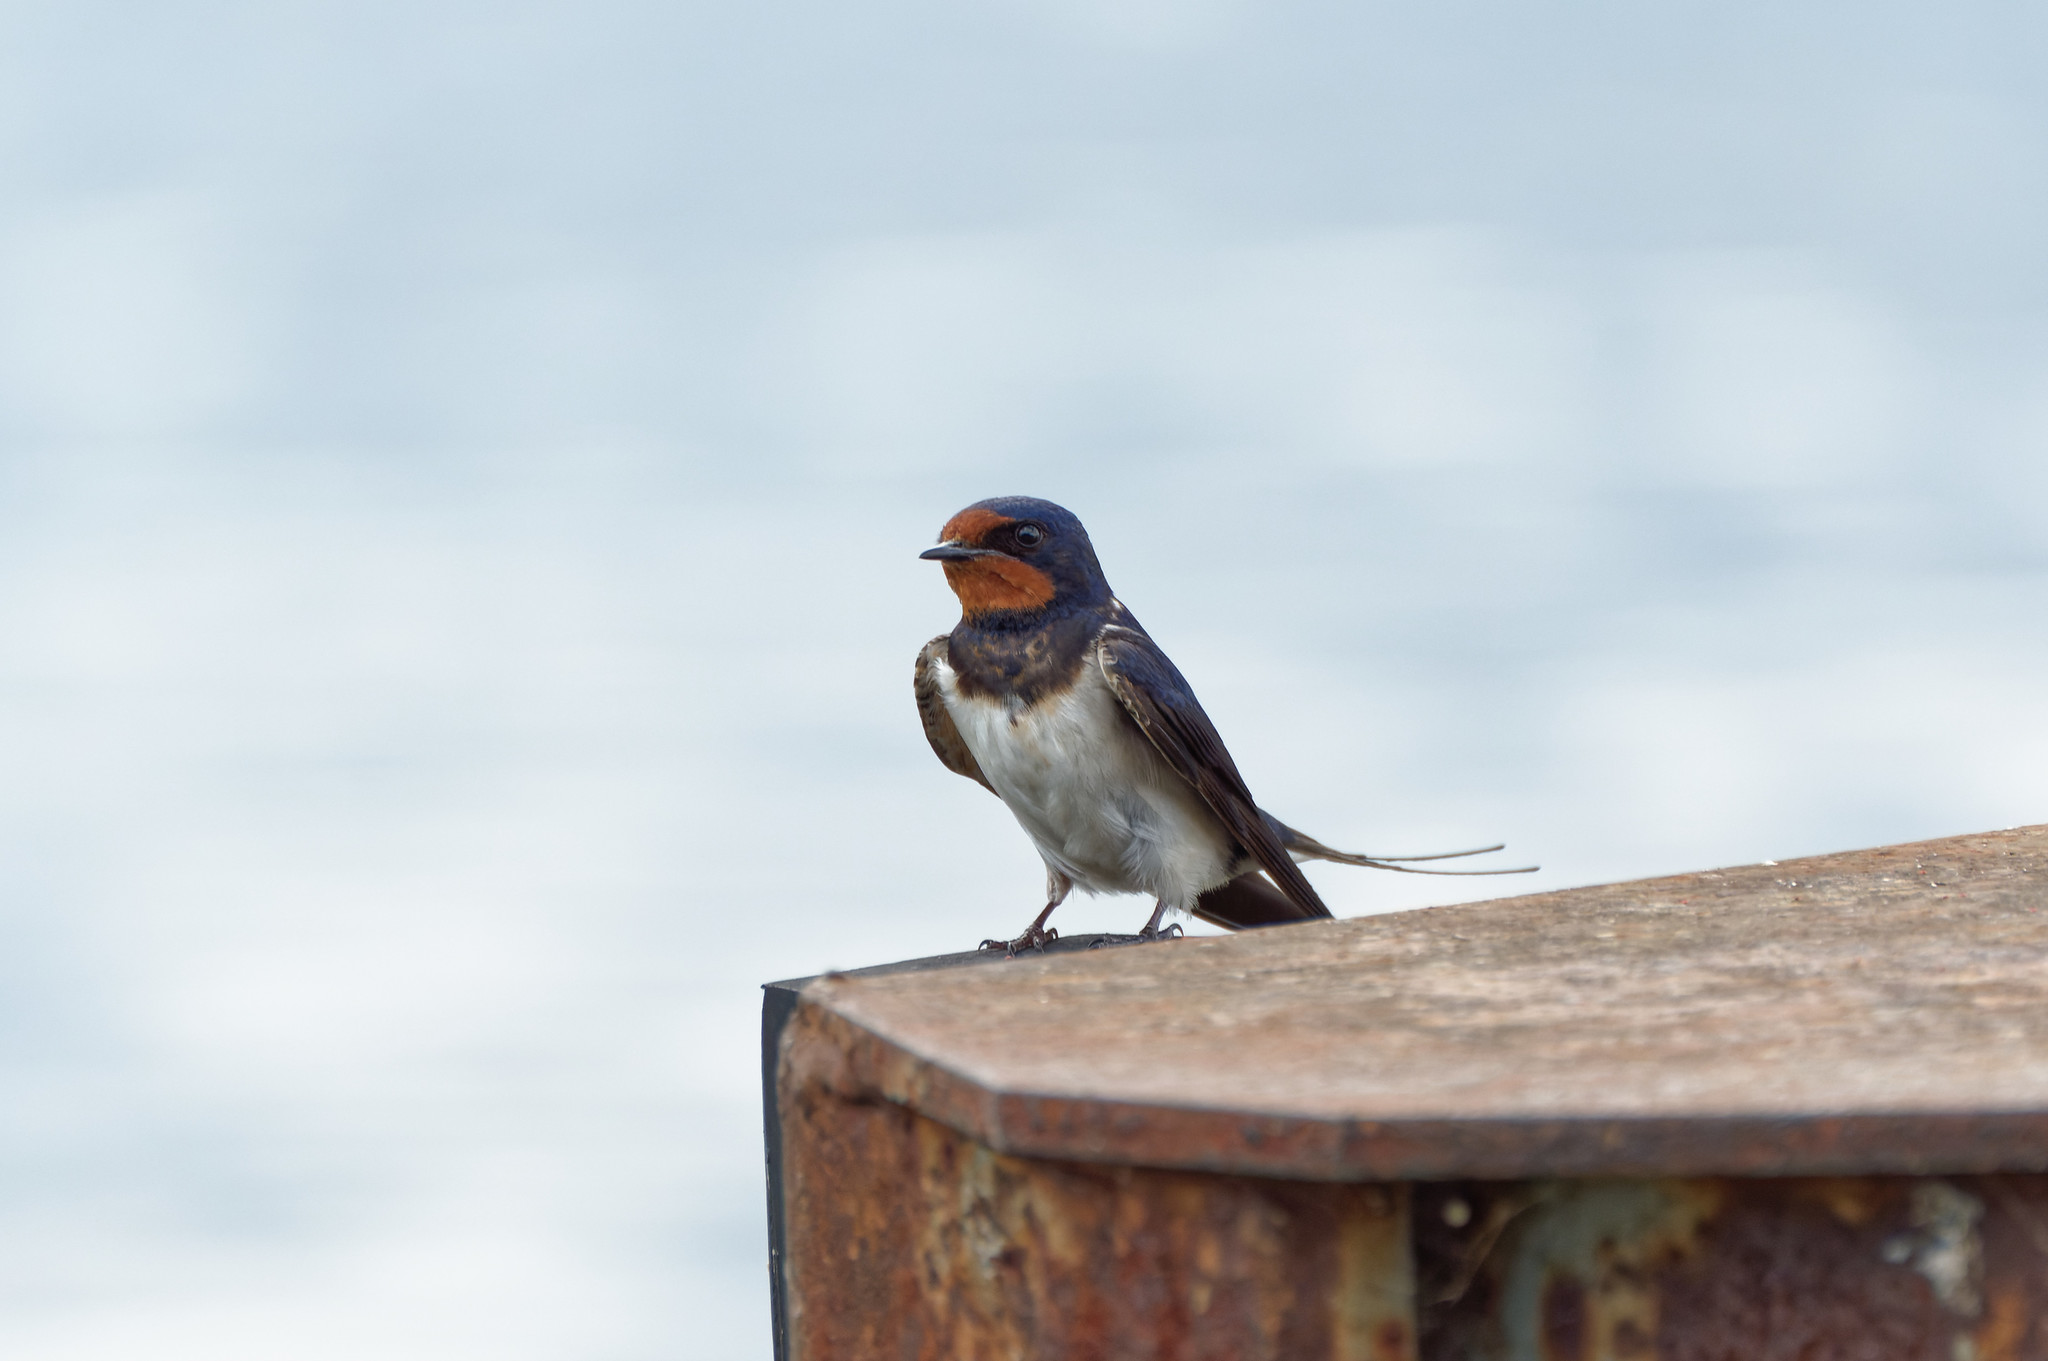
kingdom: Animalia
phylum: Chordata
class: Aves
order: Passeriformes
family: Hirundinidae
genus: Hirundo
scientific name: Hirundo rustica
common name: Barn swallow
